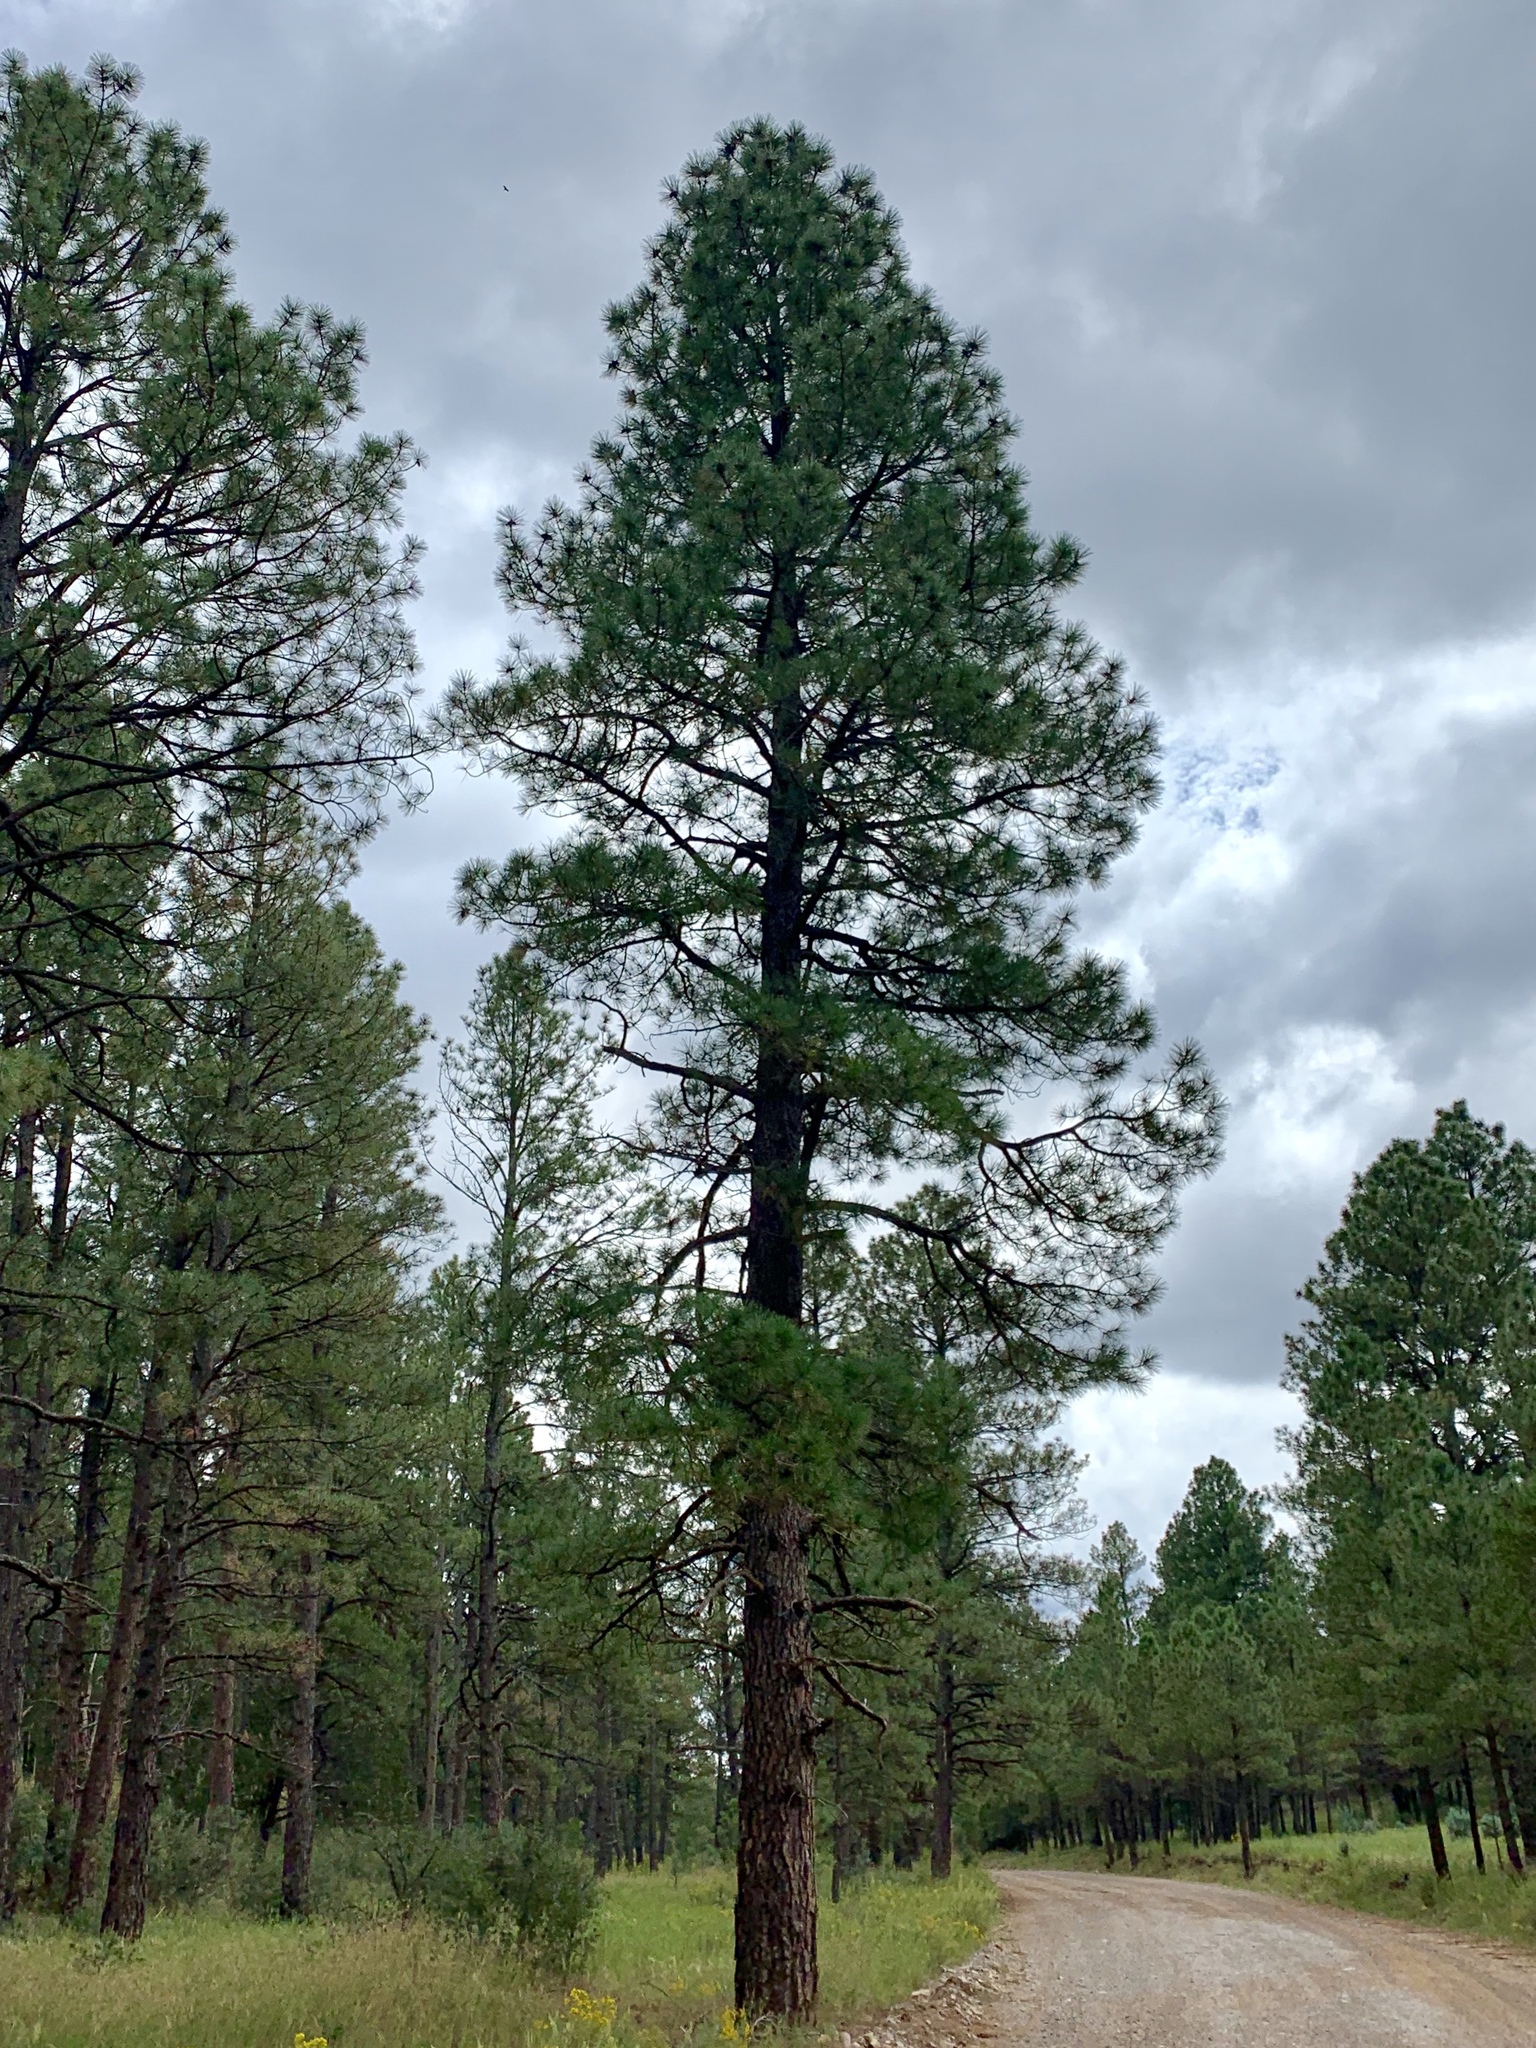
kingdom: Plantae
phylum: Tracheophyta
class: Pinopsida
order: Pinales
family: Pinaceae
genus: Pinus
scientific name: Pinus ponderosa
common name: Western yellow-pine
